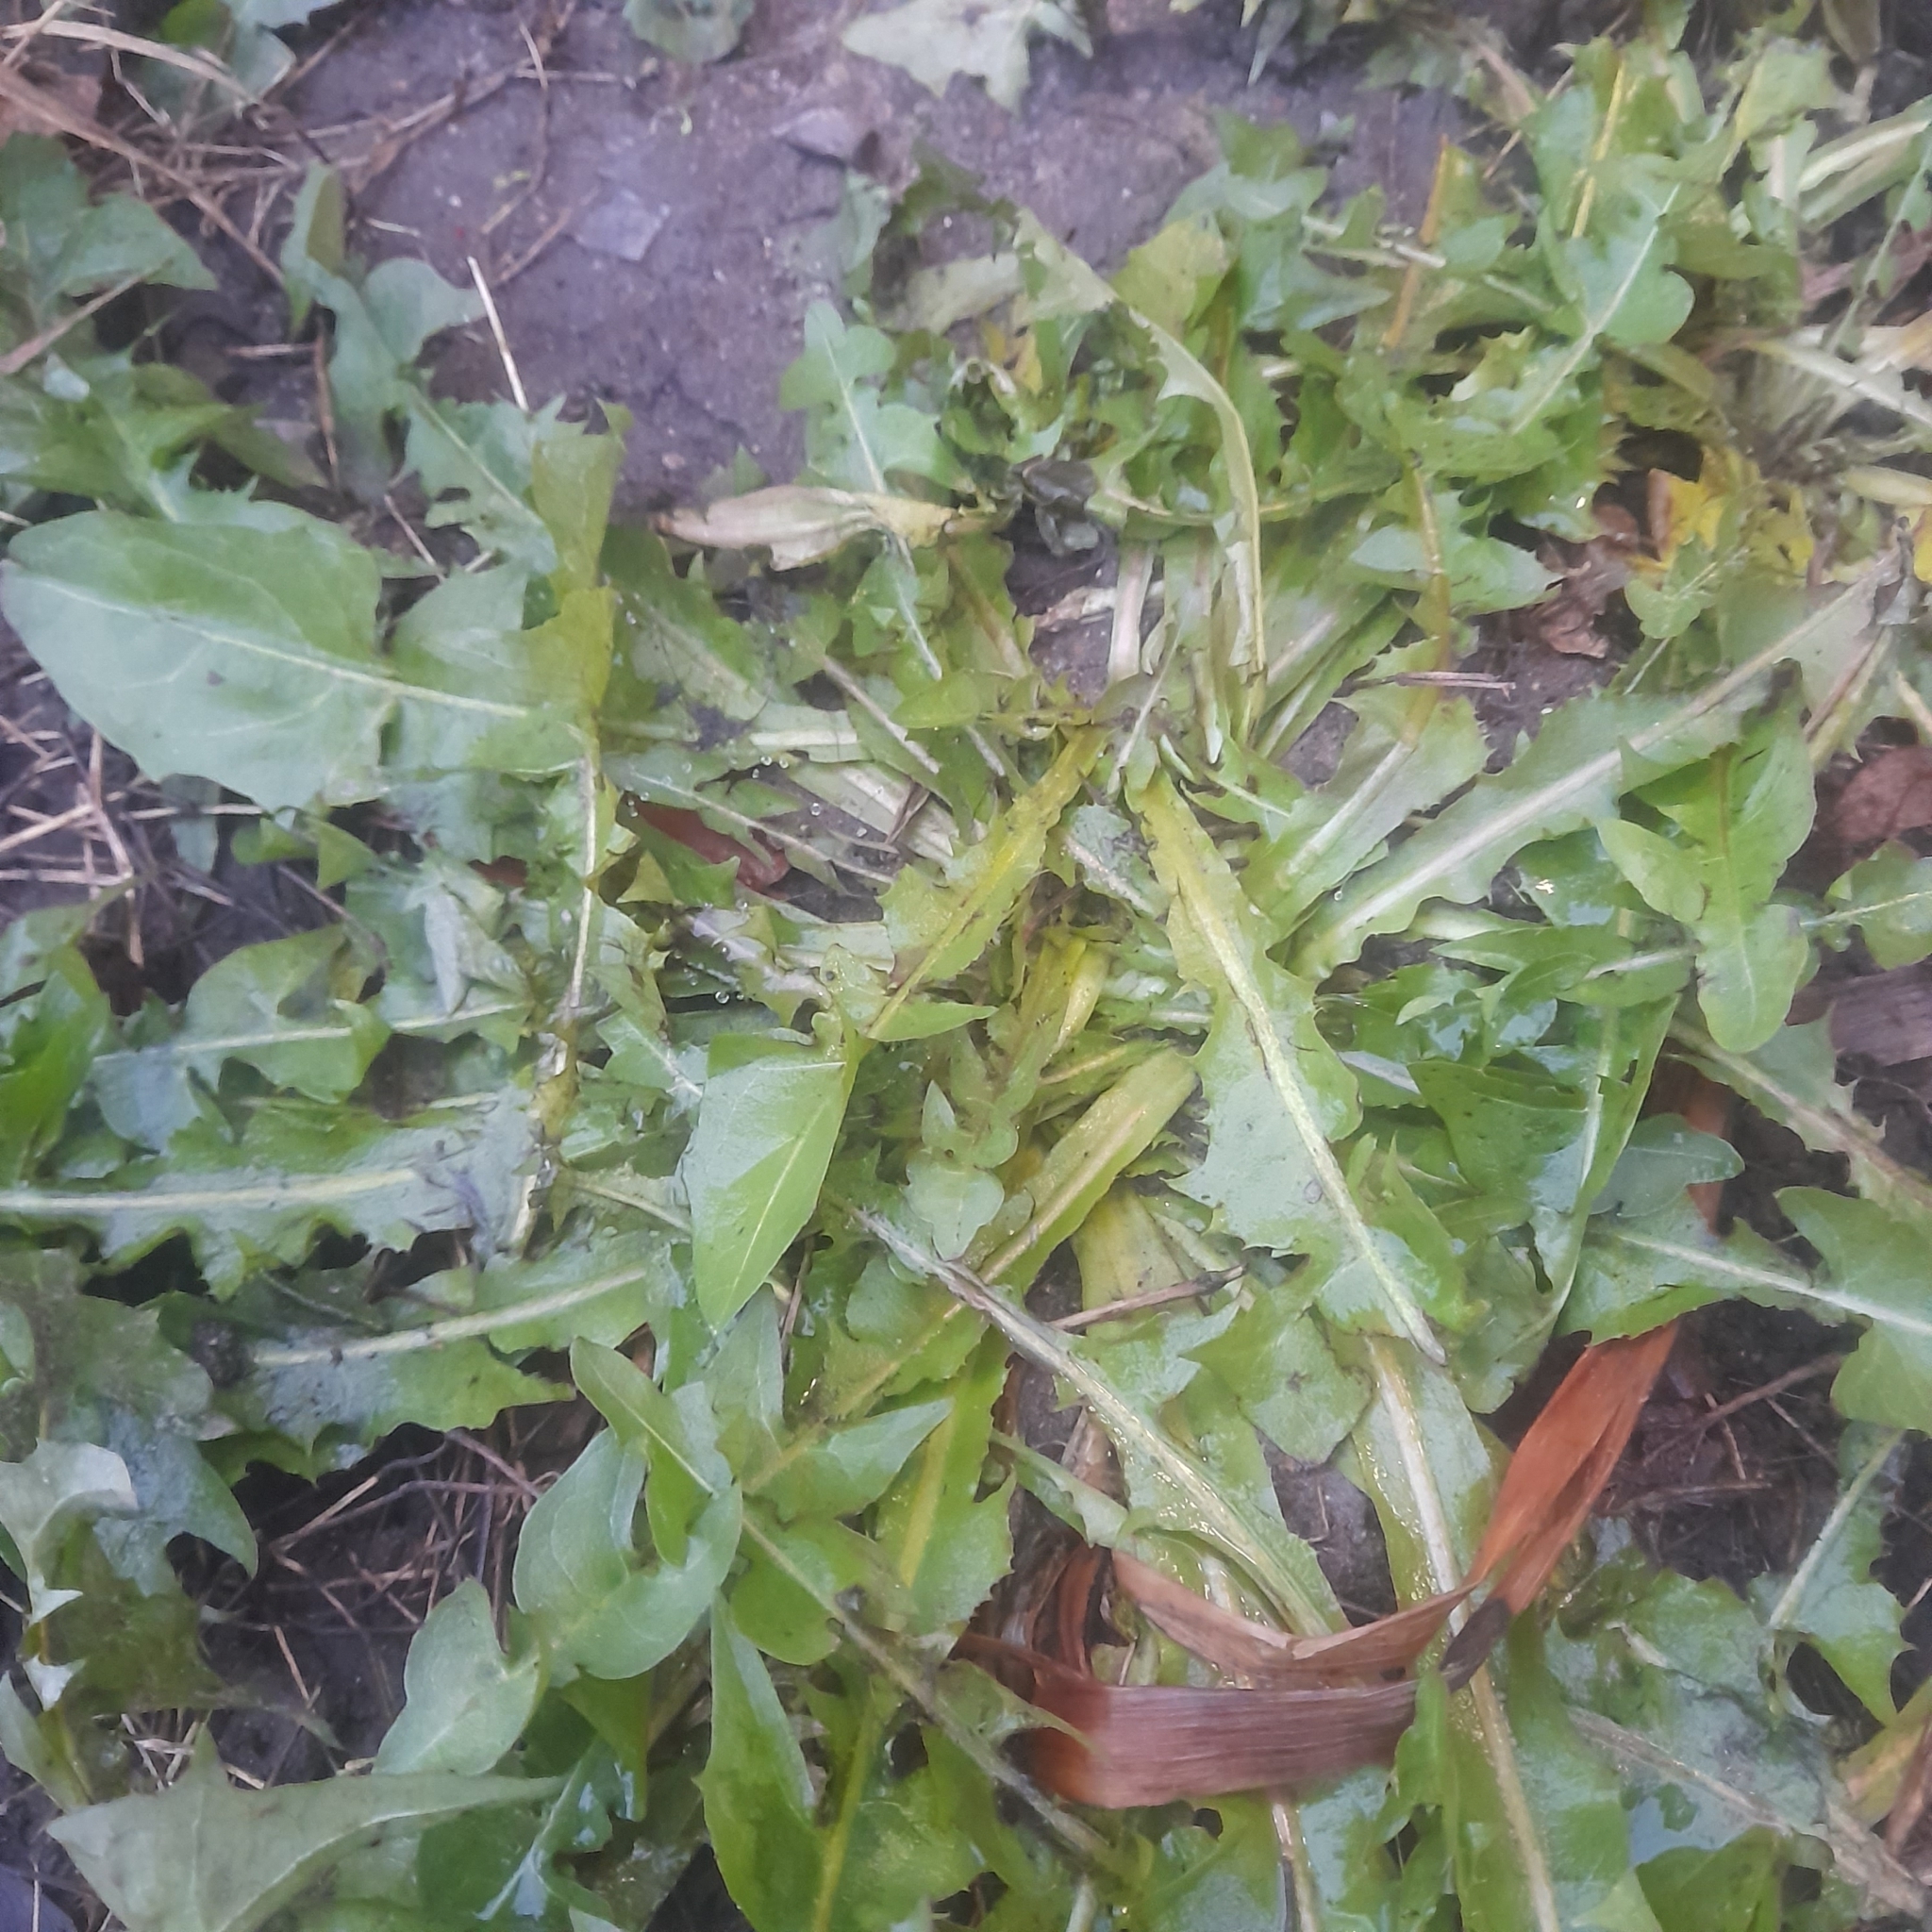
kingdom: Plantae
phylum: Tracheophyta
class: Magnoliopsida
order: Asterales
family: Asteraceae
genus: Taraxacum
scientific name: Taraxacum officinale
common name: Common dandelion
